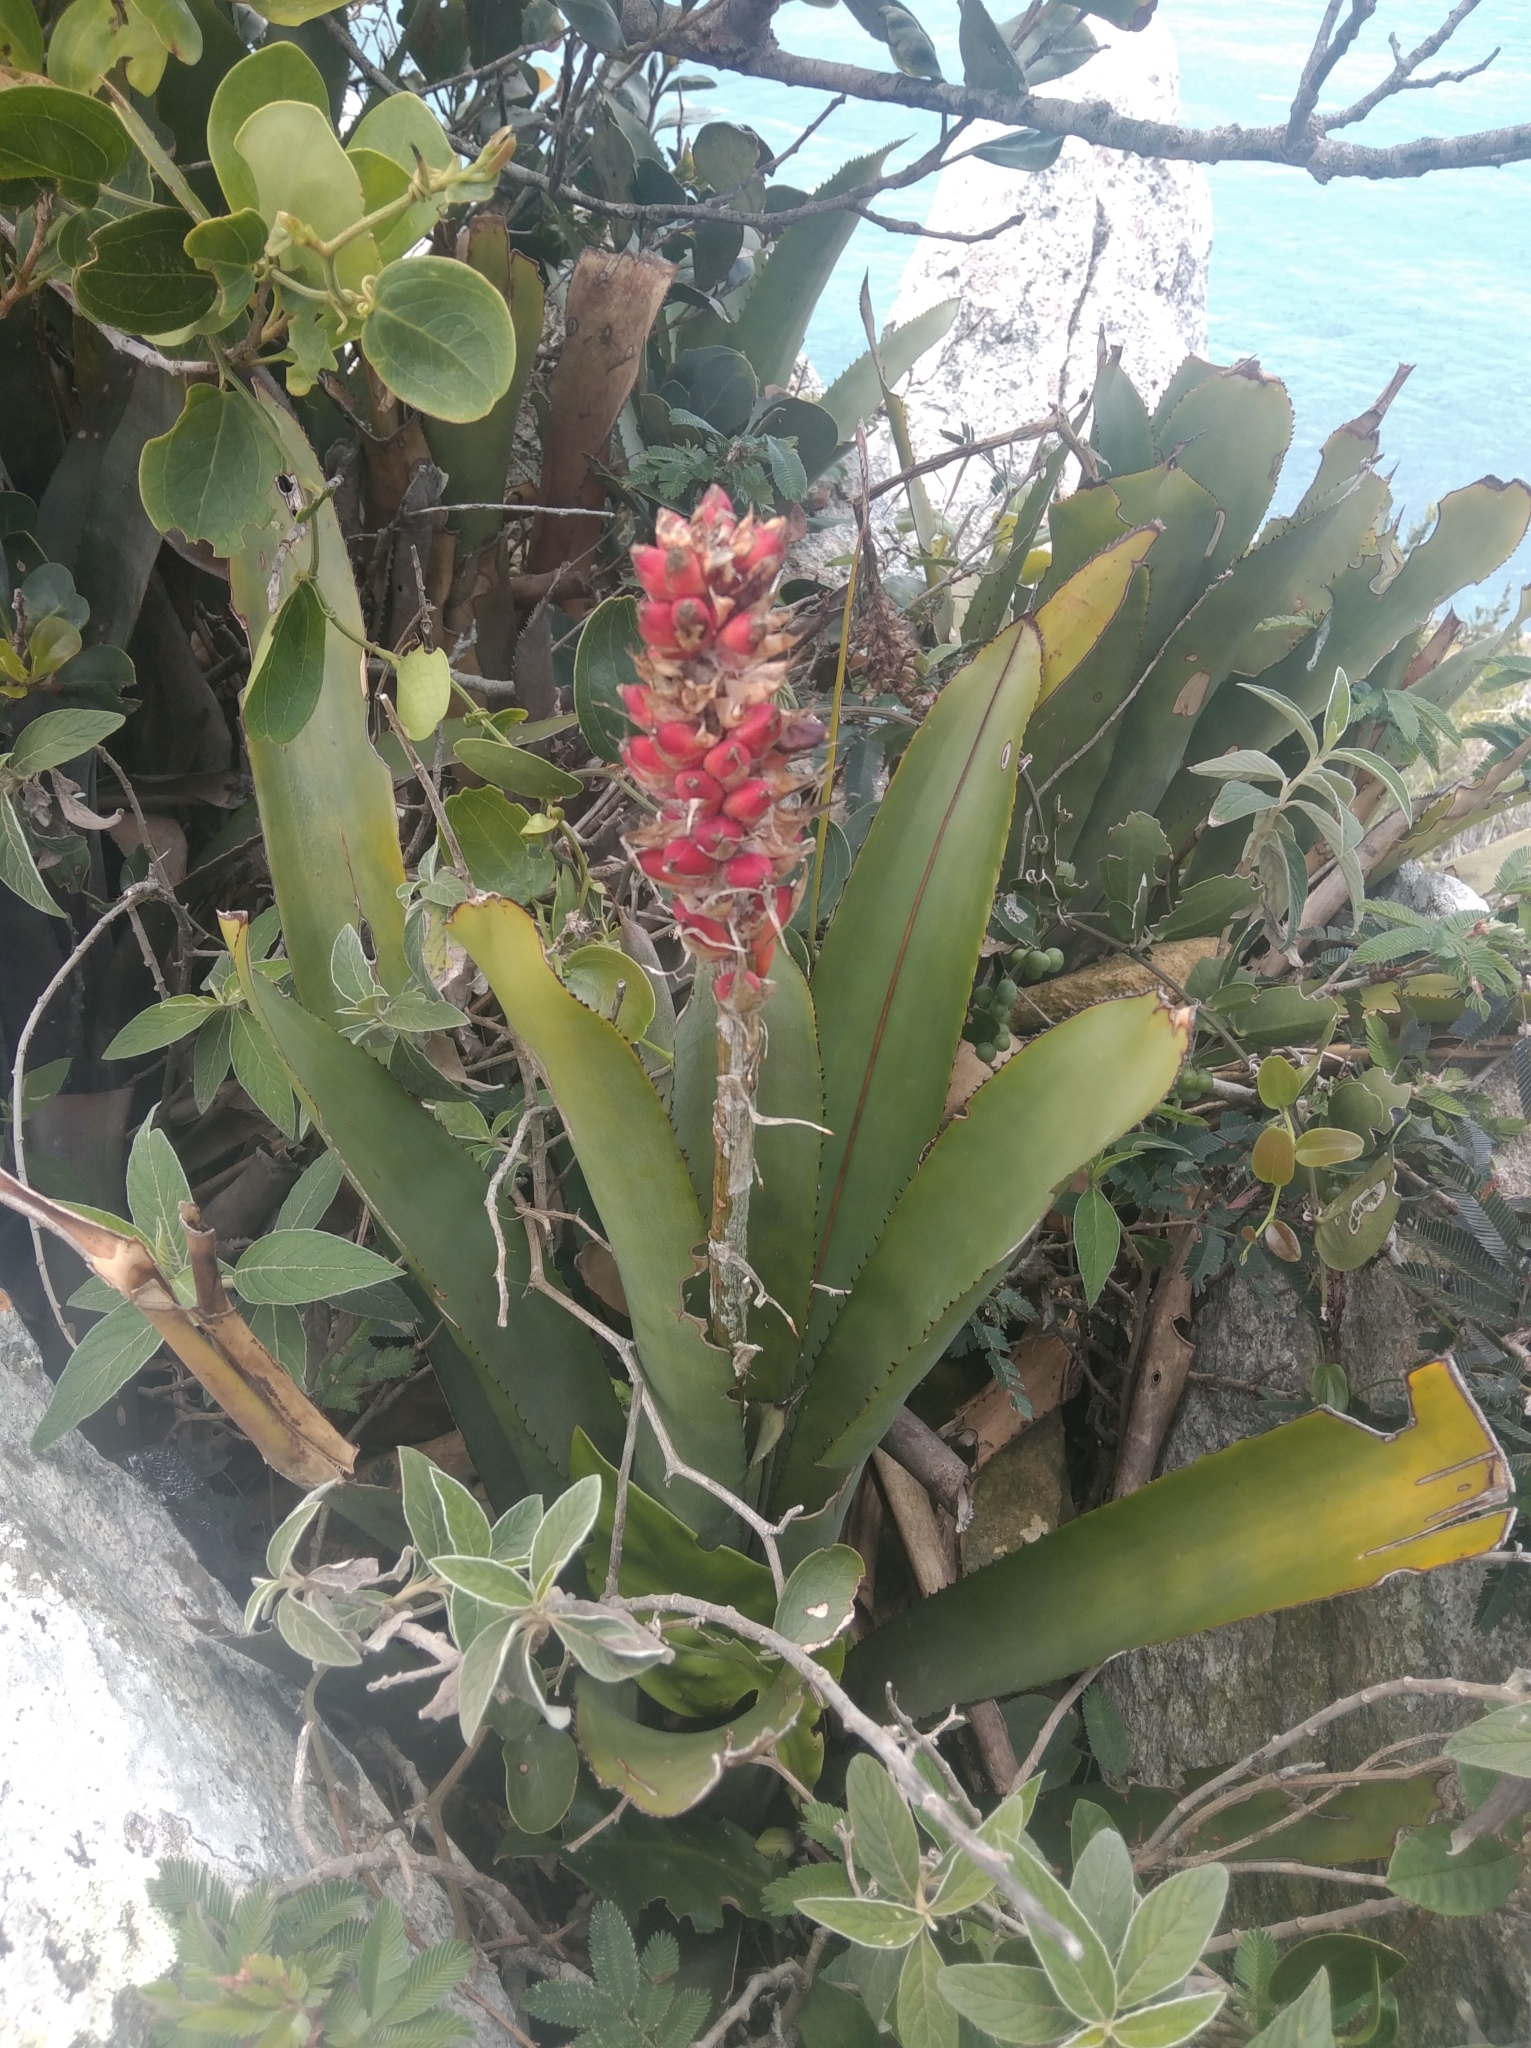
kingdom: Plantae
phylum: Tracheophyta
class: Liliopsida
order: Poales
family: Bromeliaceae
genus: Aechmea
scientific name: Aechmea comata
